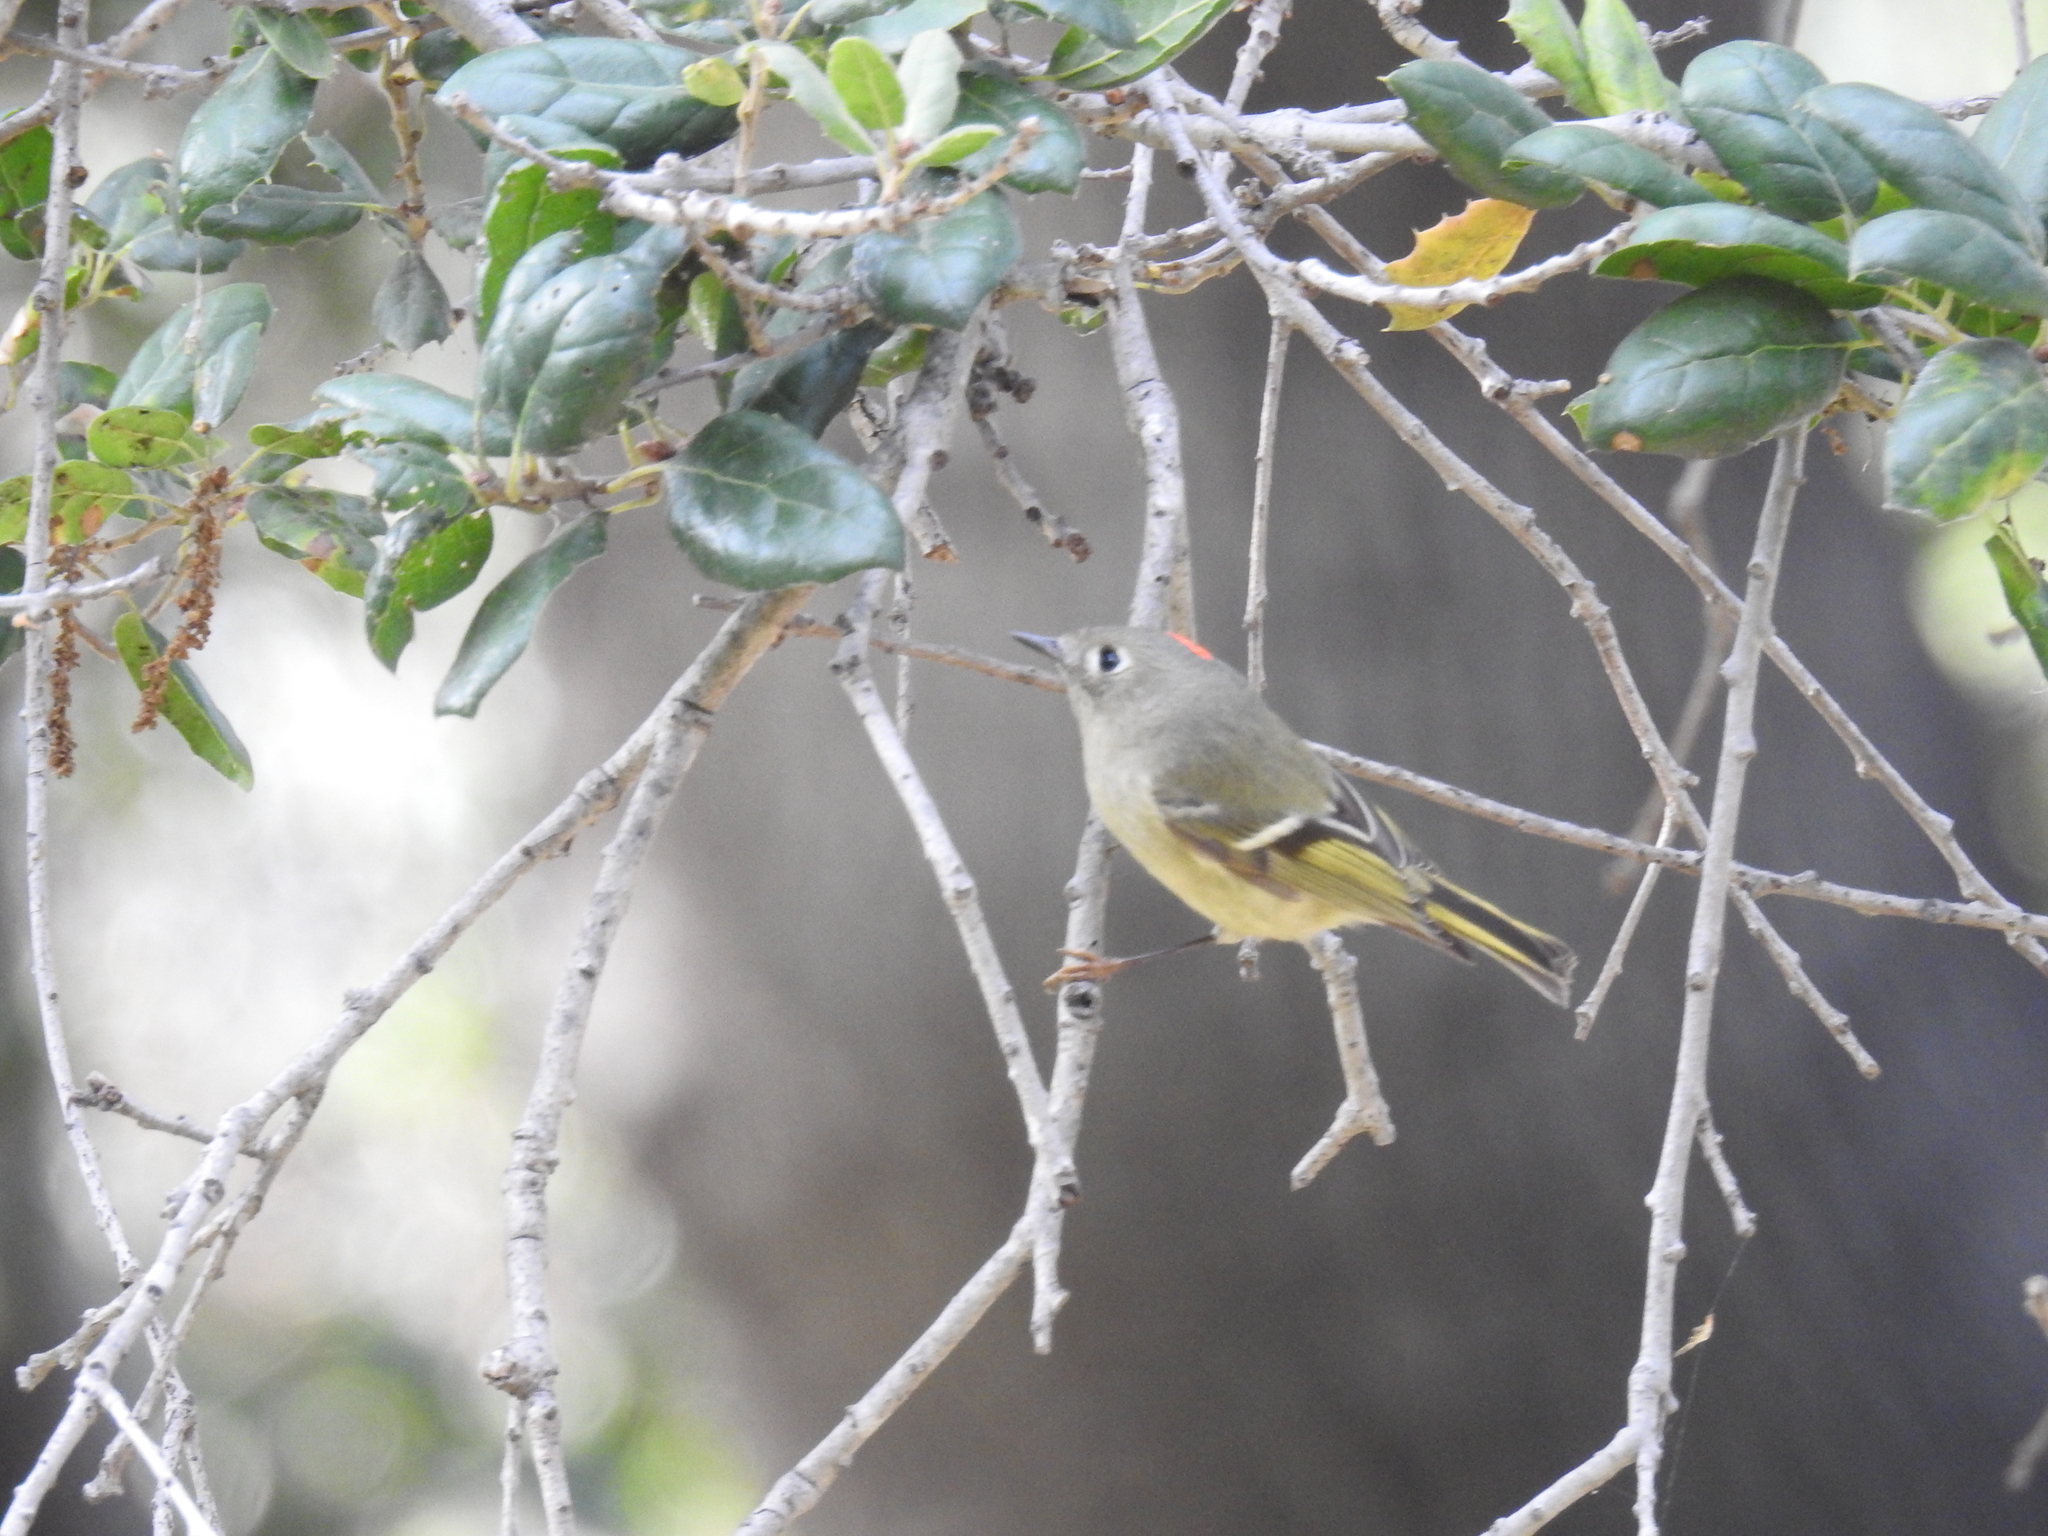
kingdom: Animalia
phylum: Chordata
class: Aves
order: Passeriformes
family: Regulidae
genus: Regulus
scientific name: Regulus calendula
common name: Ruby-crowned kinglet
